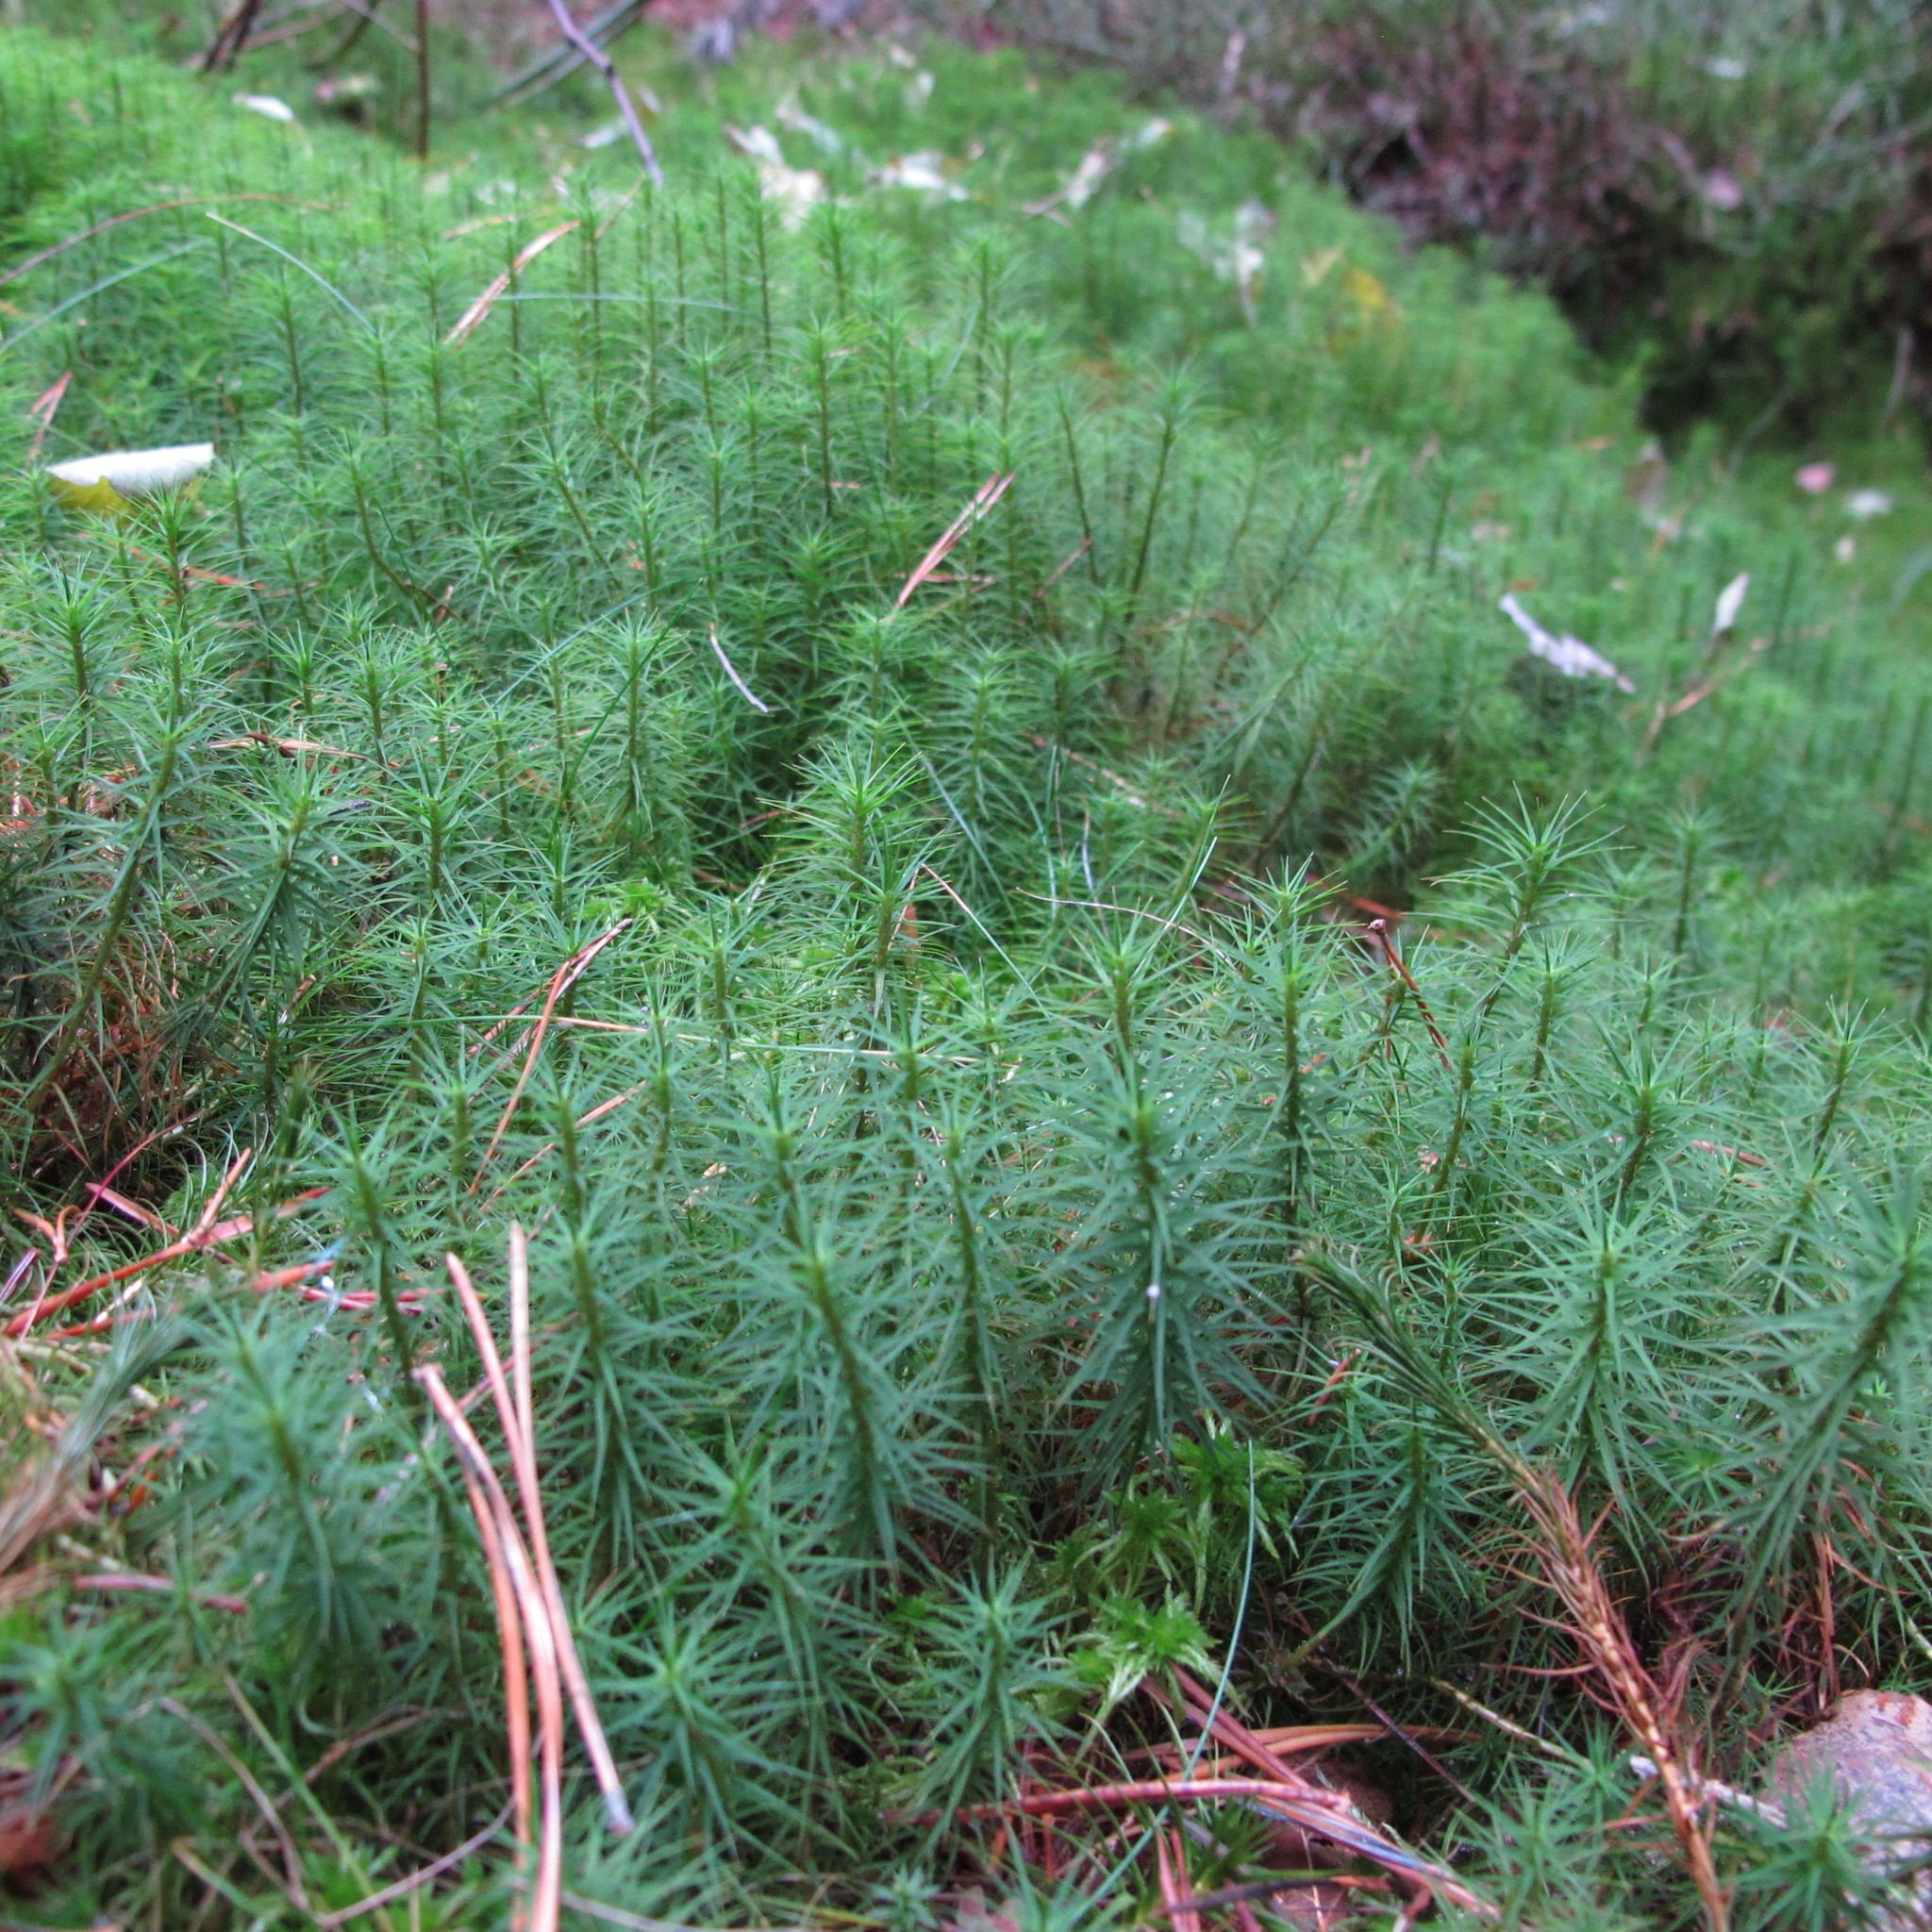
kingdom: Plantae
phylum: Bryophyta
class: Polytrichopsida
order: Polytrichales
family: Polytrichaceae
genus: Polytrichum
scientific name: Polytrichum commune
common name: Common haircap
